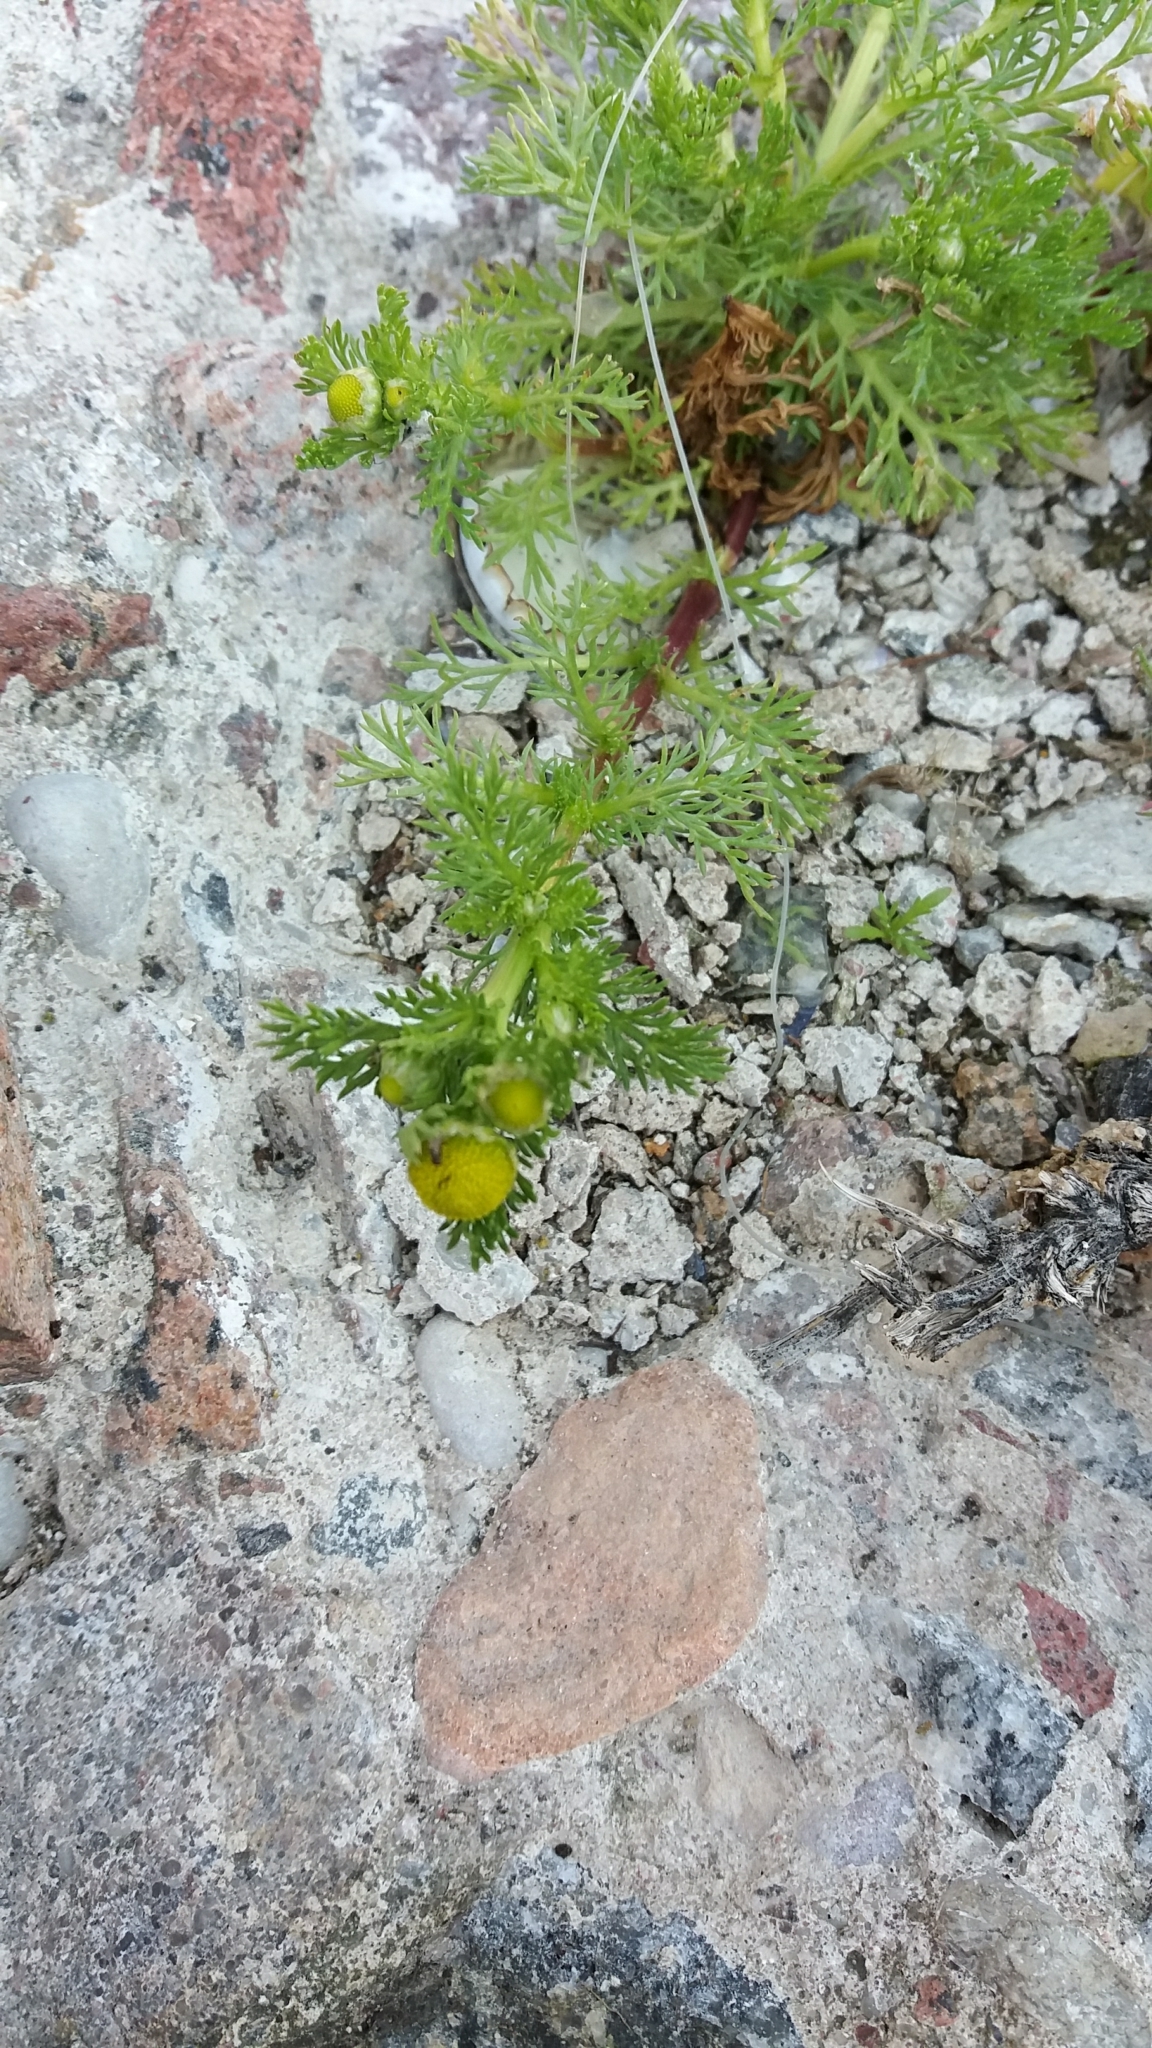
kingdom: Plantae
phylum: Tracheophyta
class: Magnoliopsida
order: Asterales
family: Asteraceae
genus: Matricaria
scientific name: Matricaria discoidea
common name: Disc mayweed
